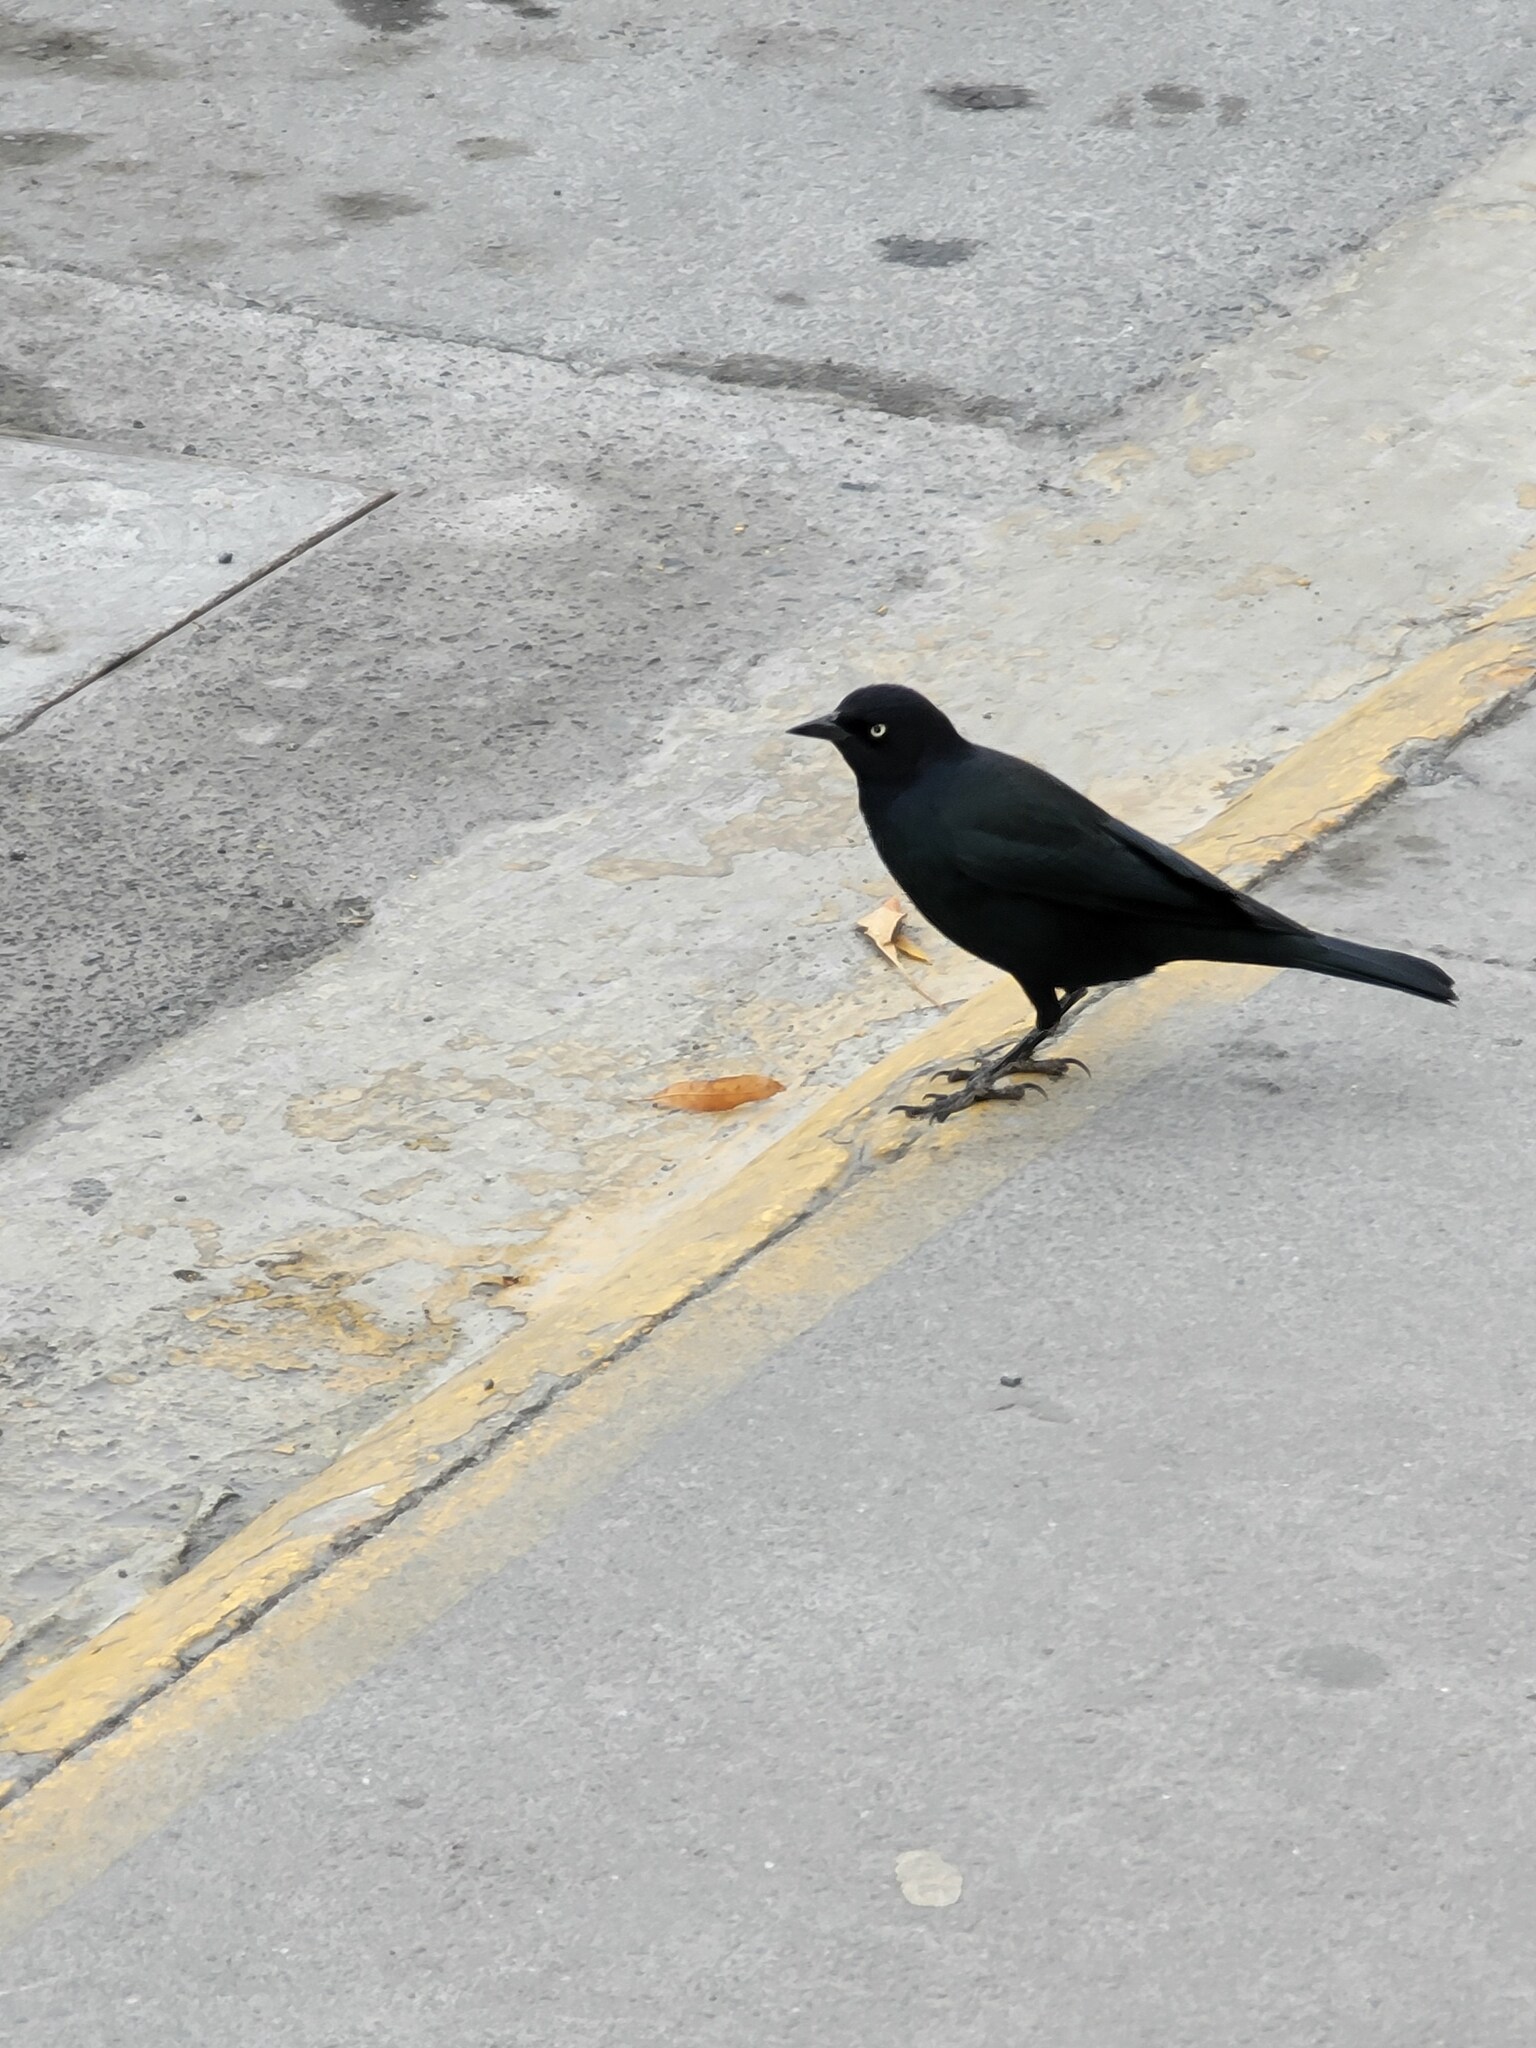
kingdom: Animalia
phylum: Chordata
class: Aves
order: Passeriformes
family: Icteridae
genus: Euphagus
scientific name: Euphagus cyanocephalus
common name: Brewer's blackbird
